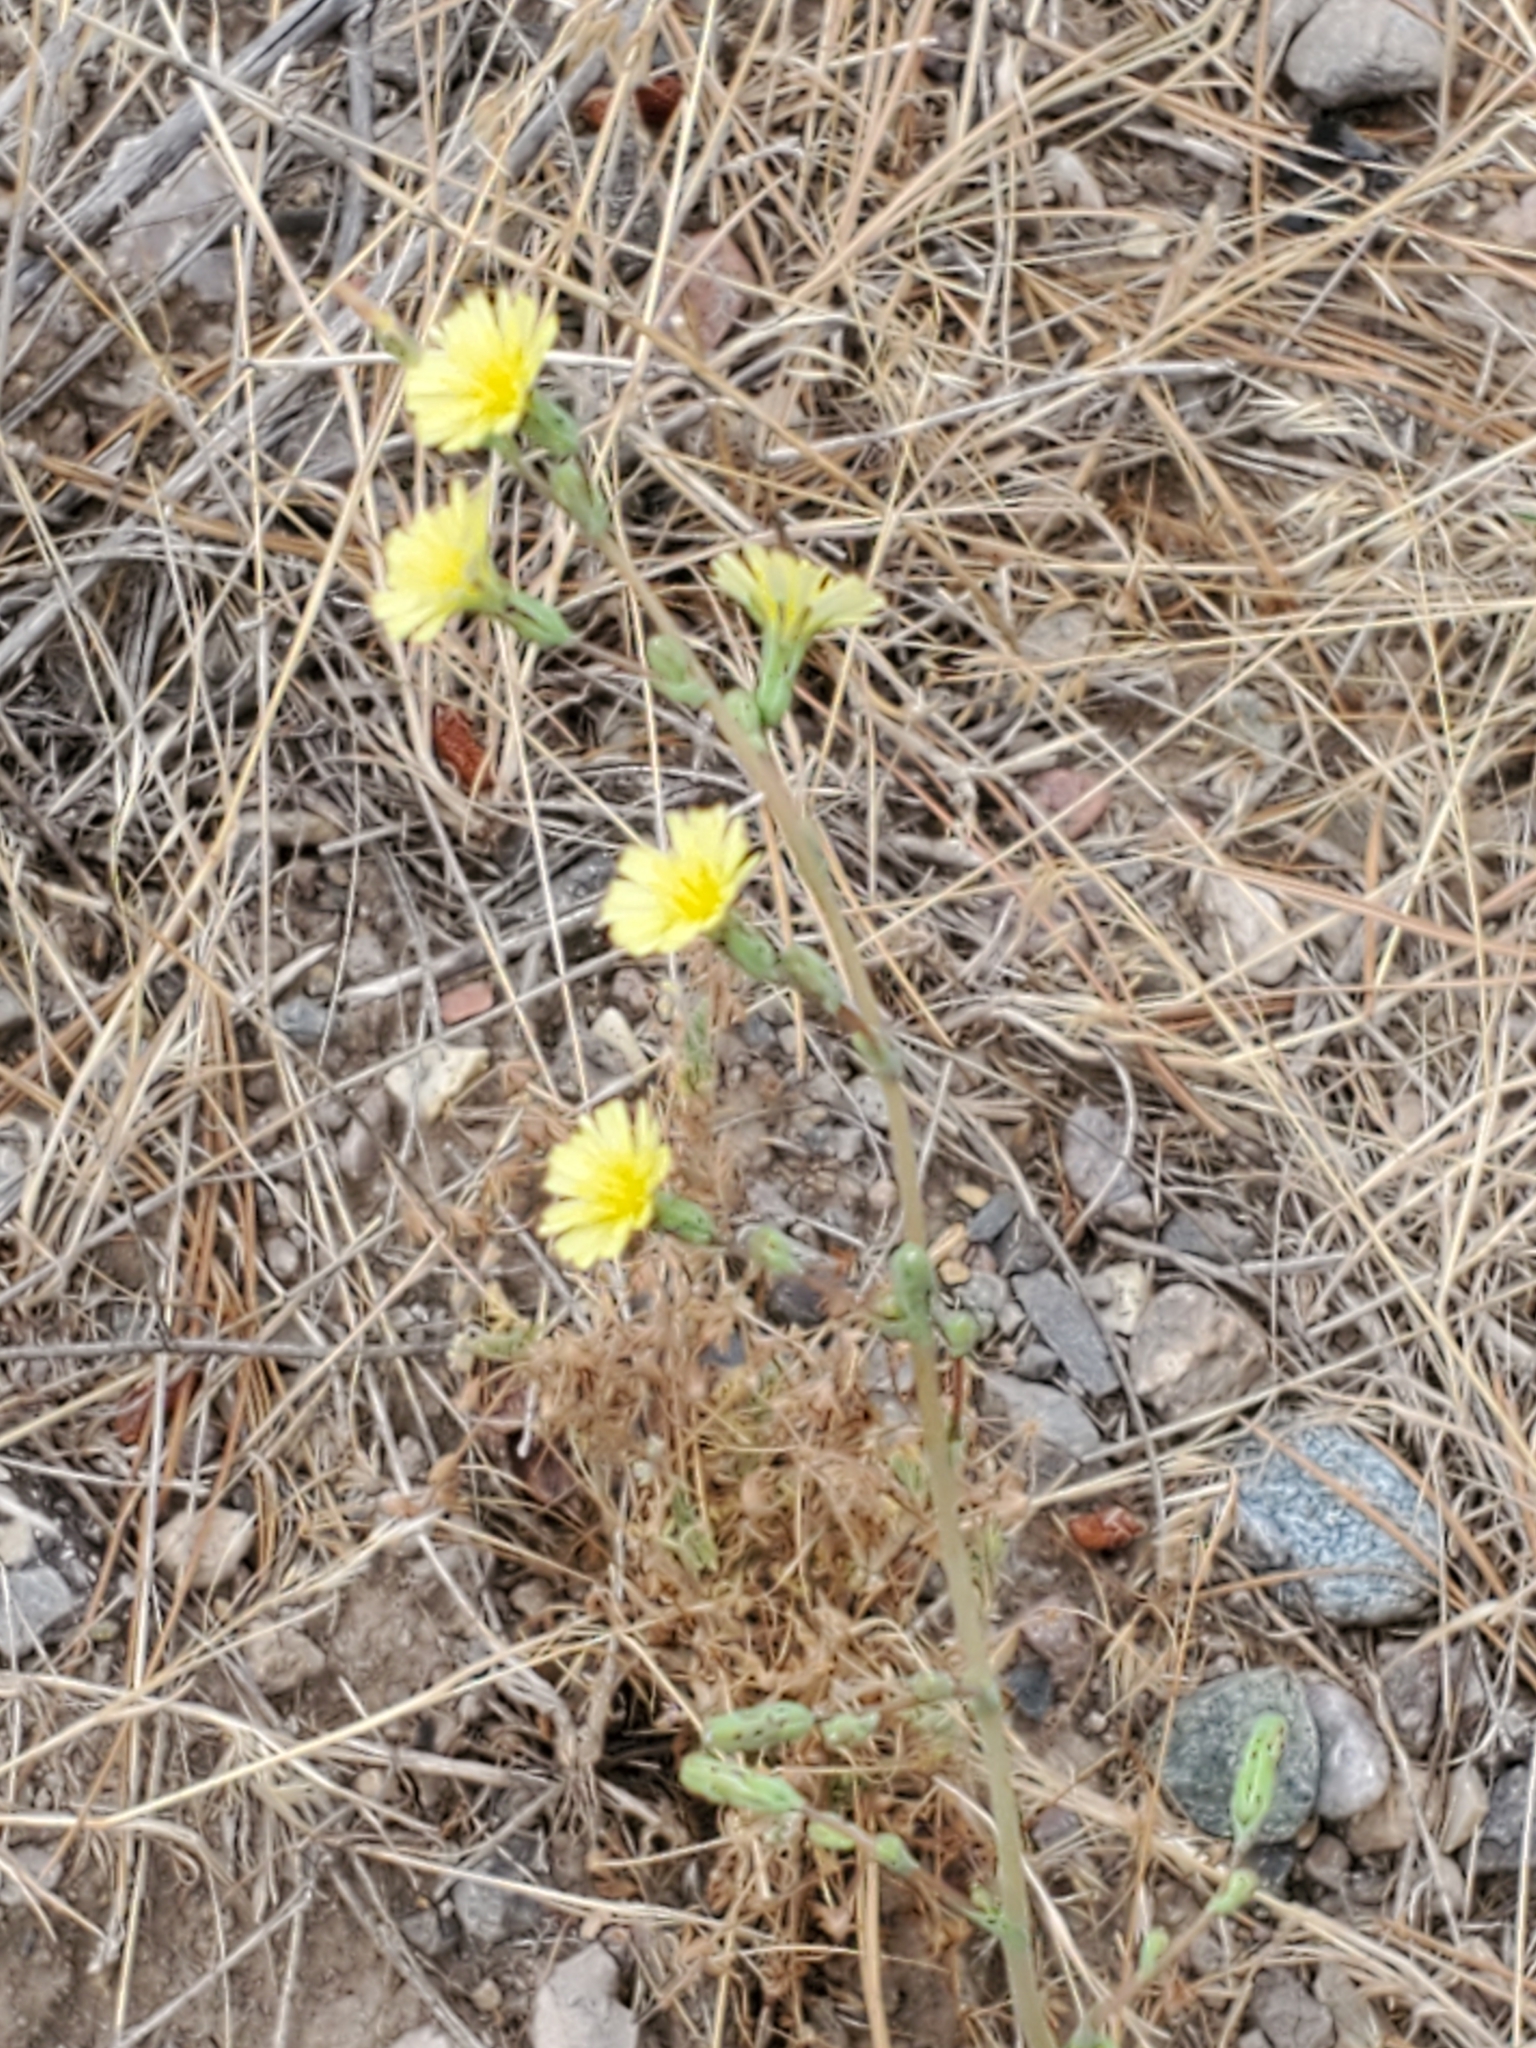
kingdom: Plantae
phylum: Tracheophyta
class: Magnoliopsida
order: Asterales
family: Asteraceae
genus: Lactuca
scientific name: Lactuca serriola
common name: Prickly lettuce
